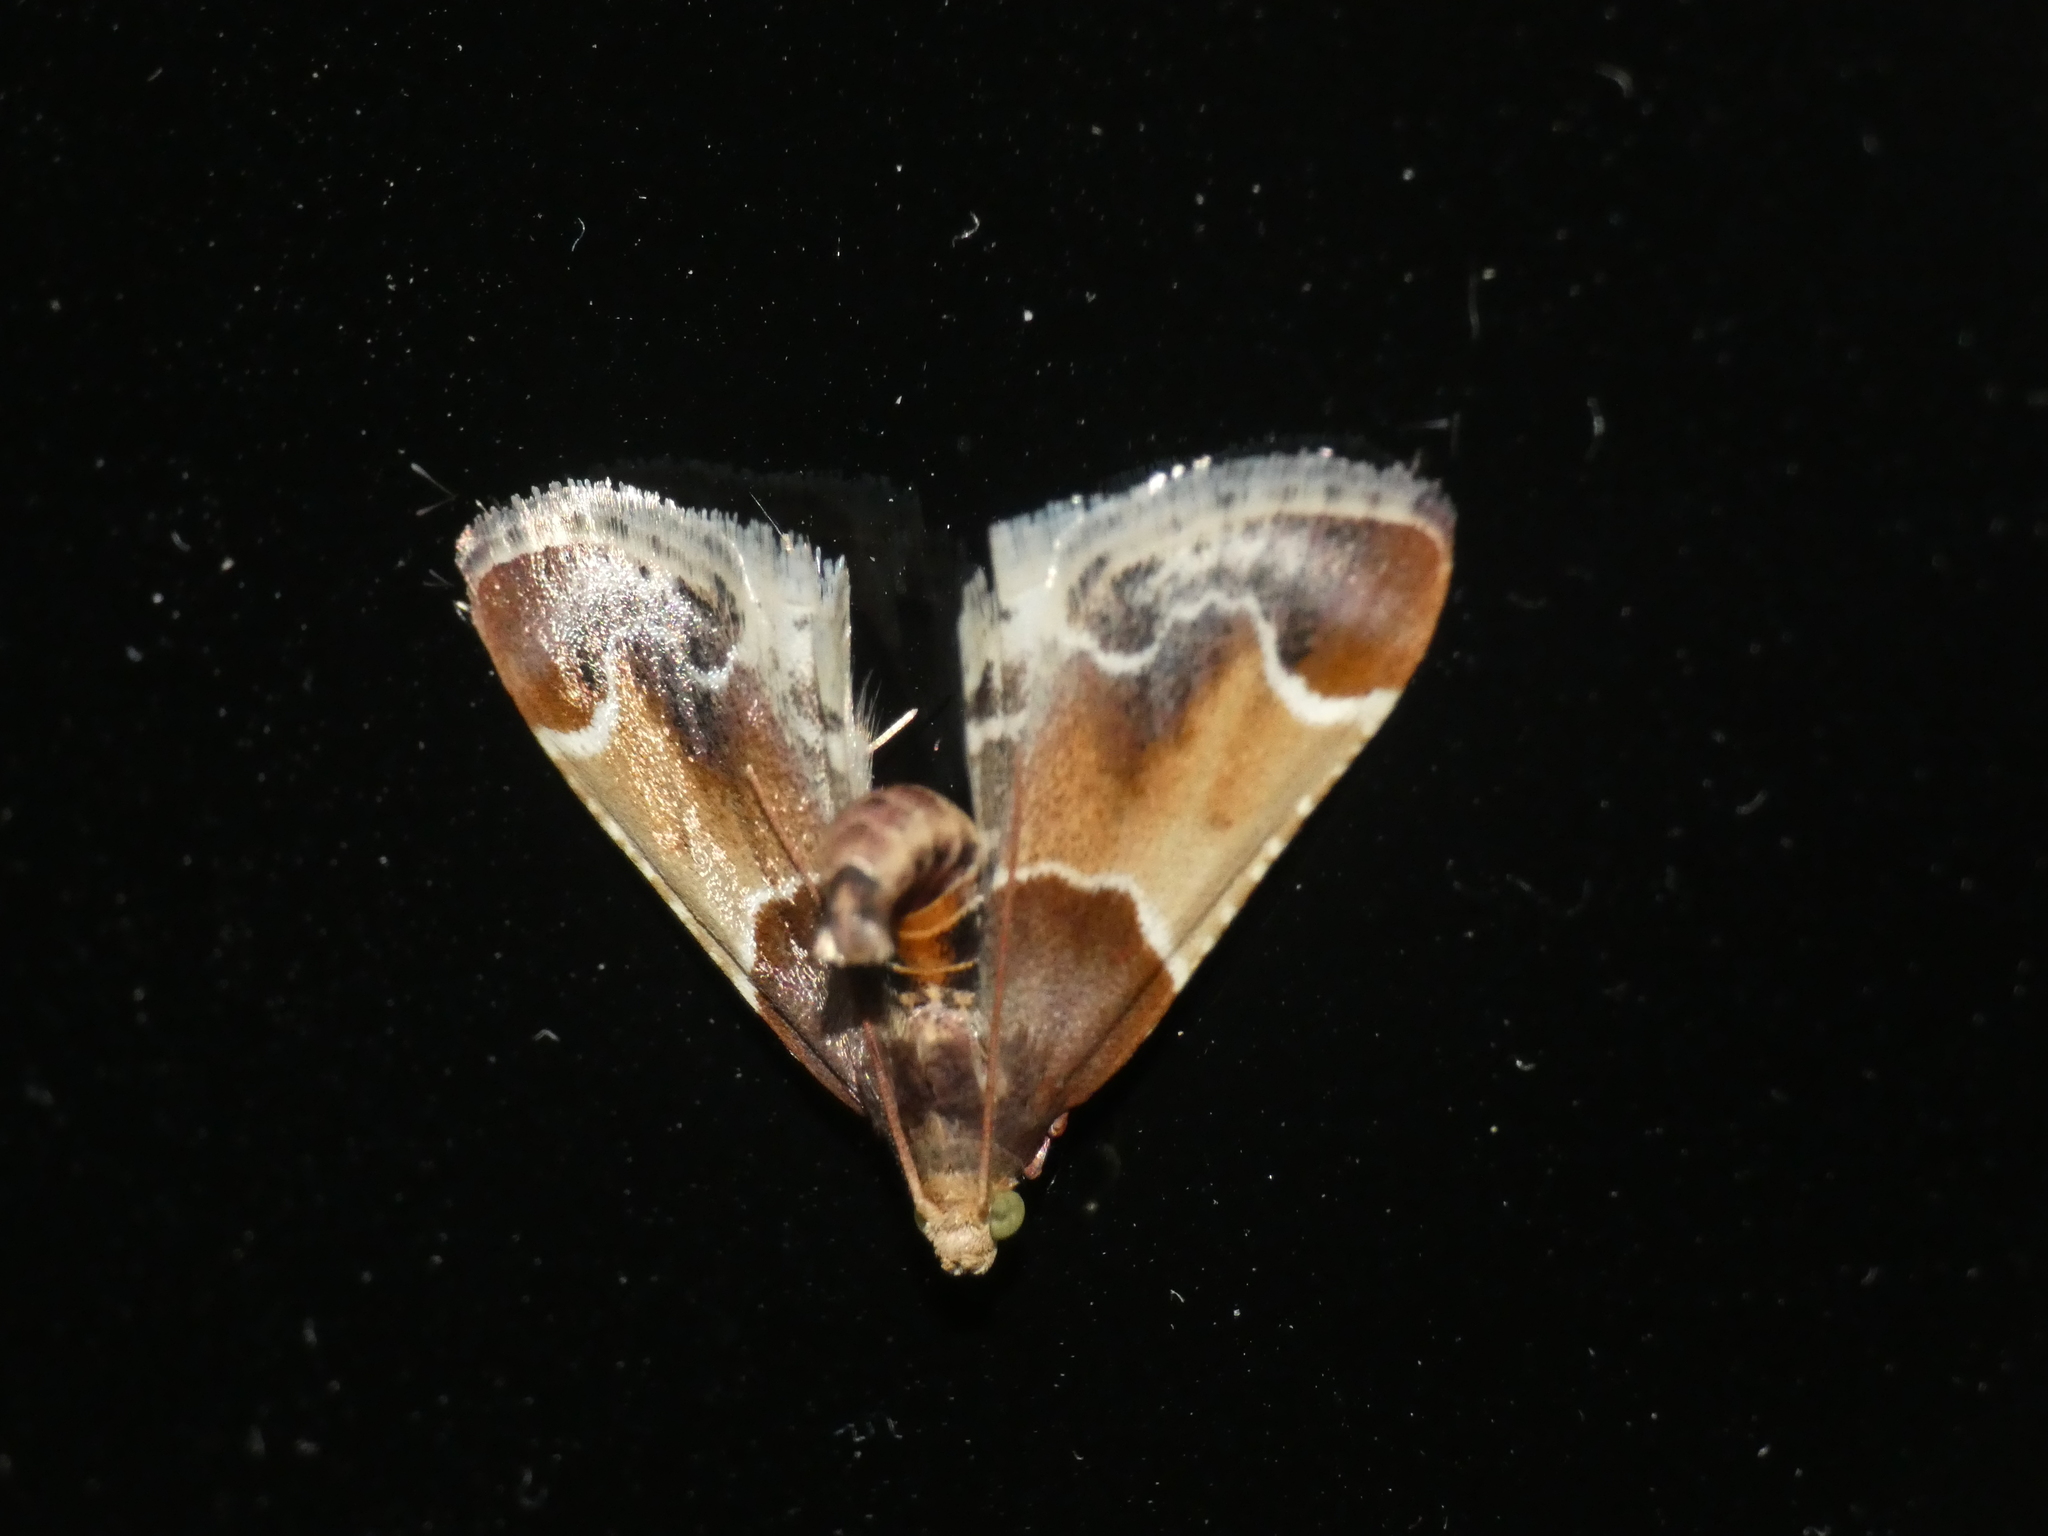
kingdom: Animalia
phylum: Arthropoda
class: Insecta
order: Lepidoptera
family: Pyralidae
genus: Pyralis
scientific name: Pyralis farinalis
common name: Meal moth
